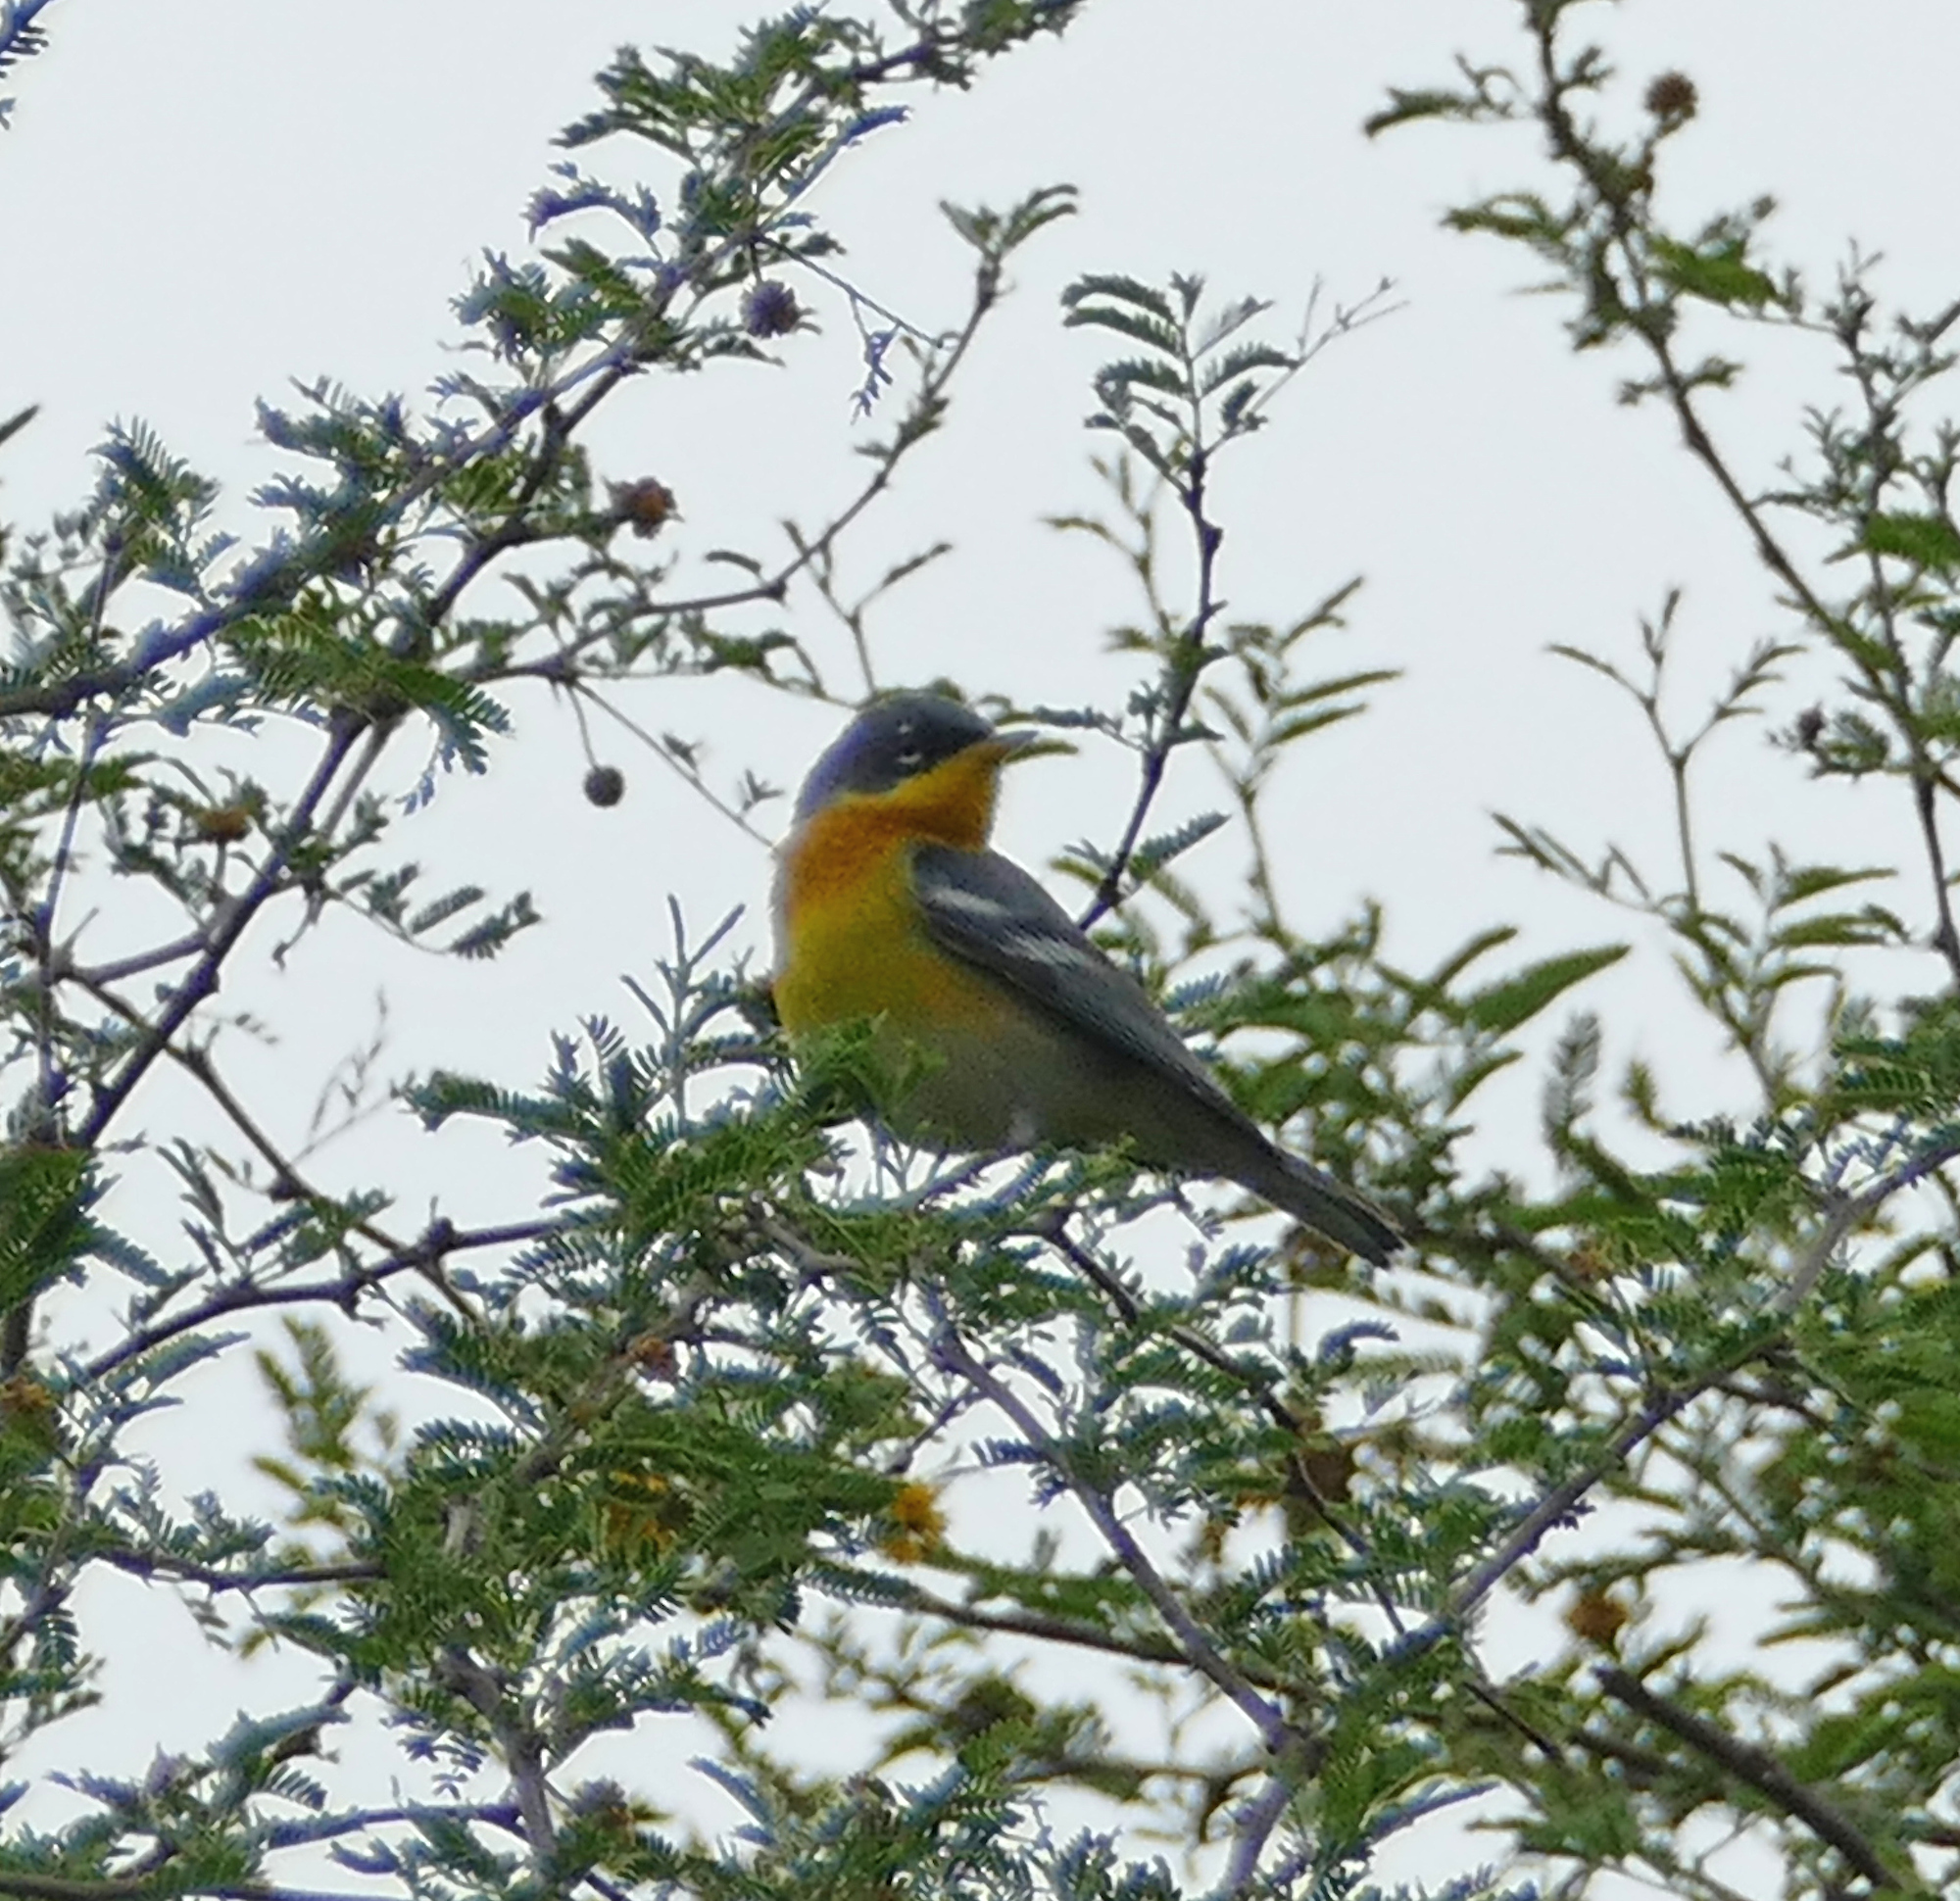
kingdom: Animalia
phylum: Chordata
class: Aves
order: Passeriformes
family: Parulidae
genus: Setophaga
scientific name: Setophaga pitiayumi
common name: Tropical parula
